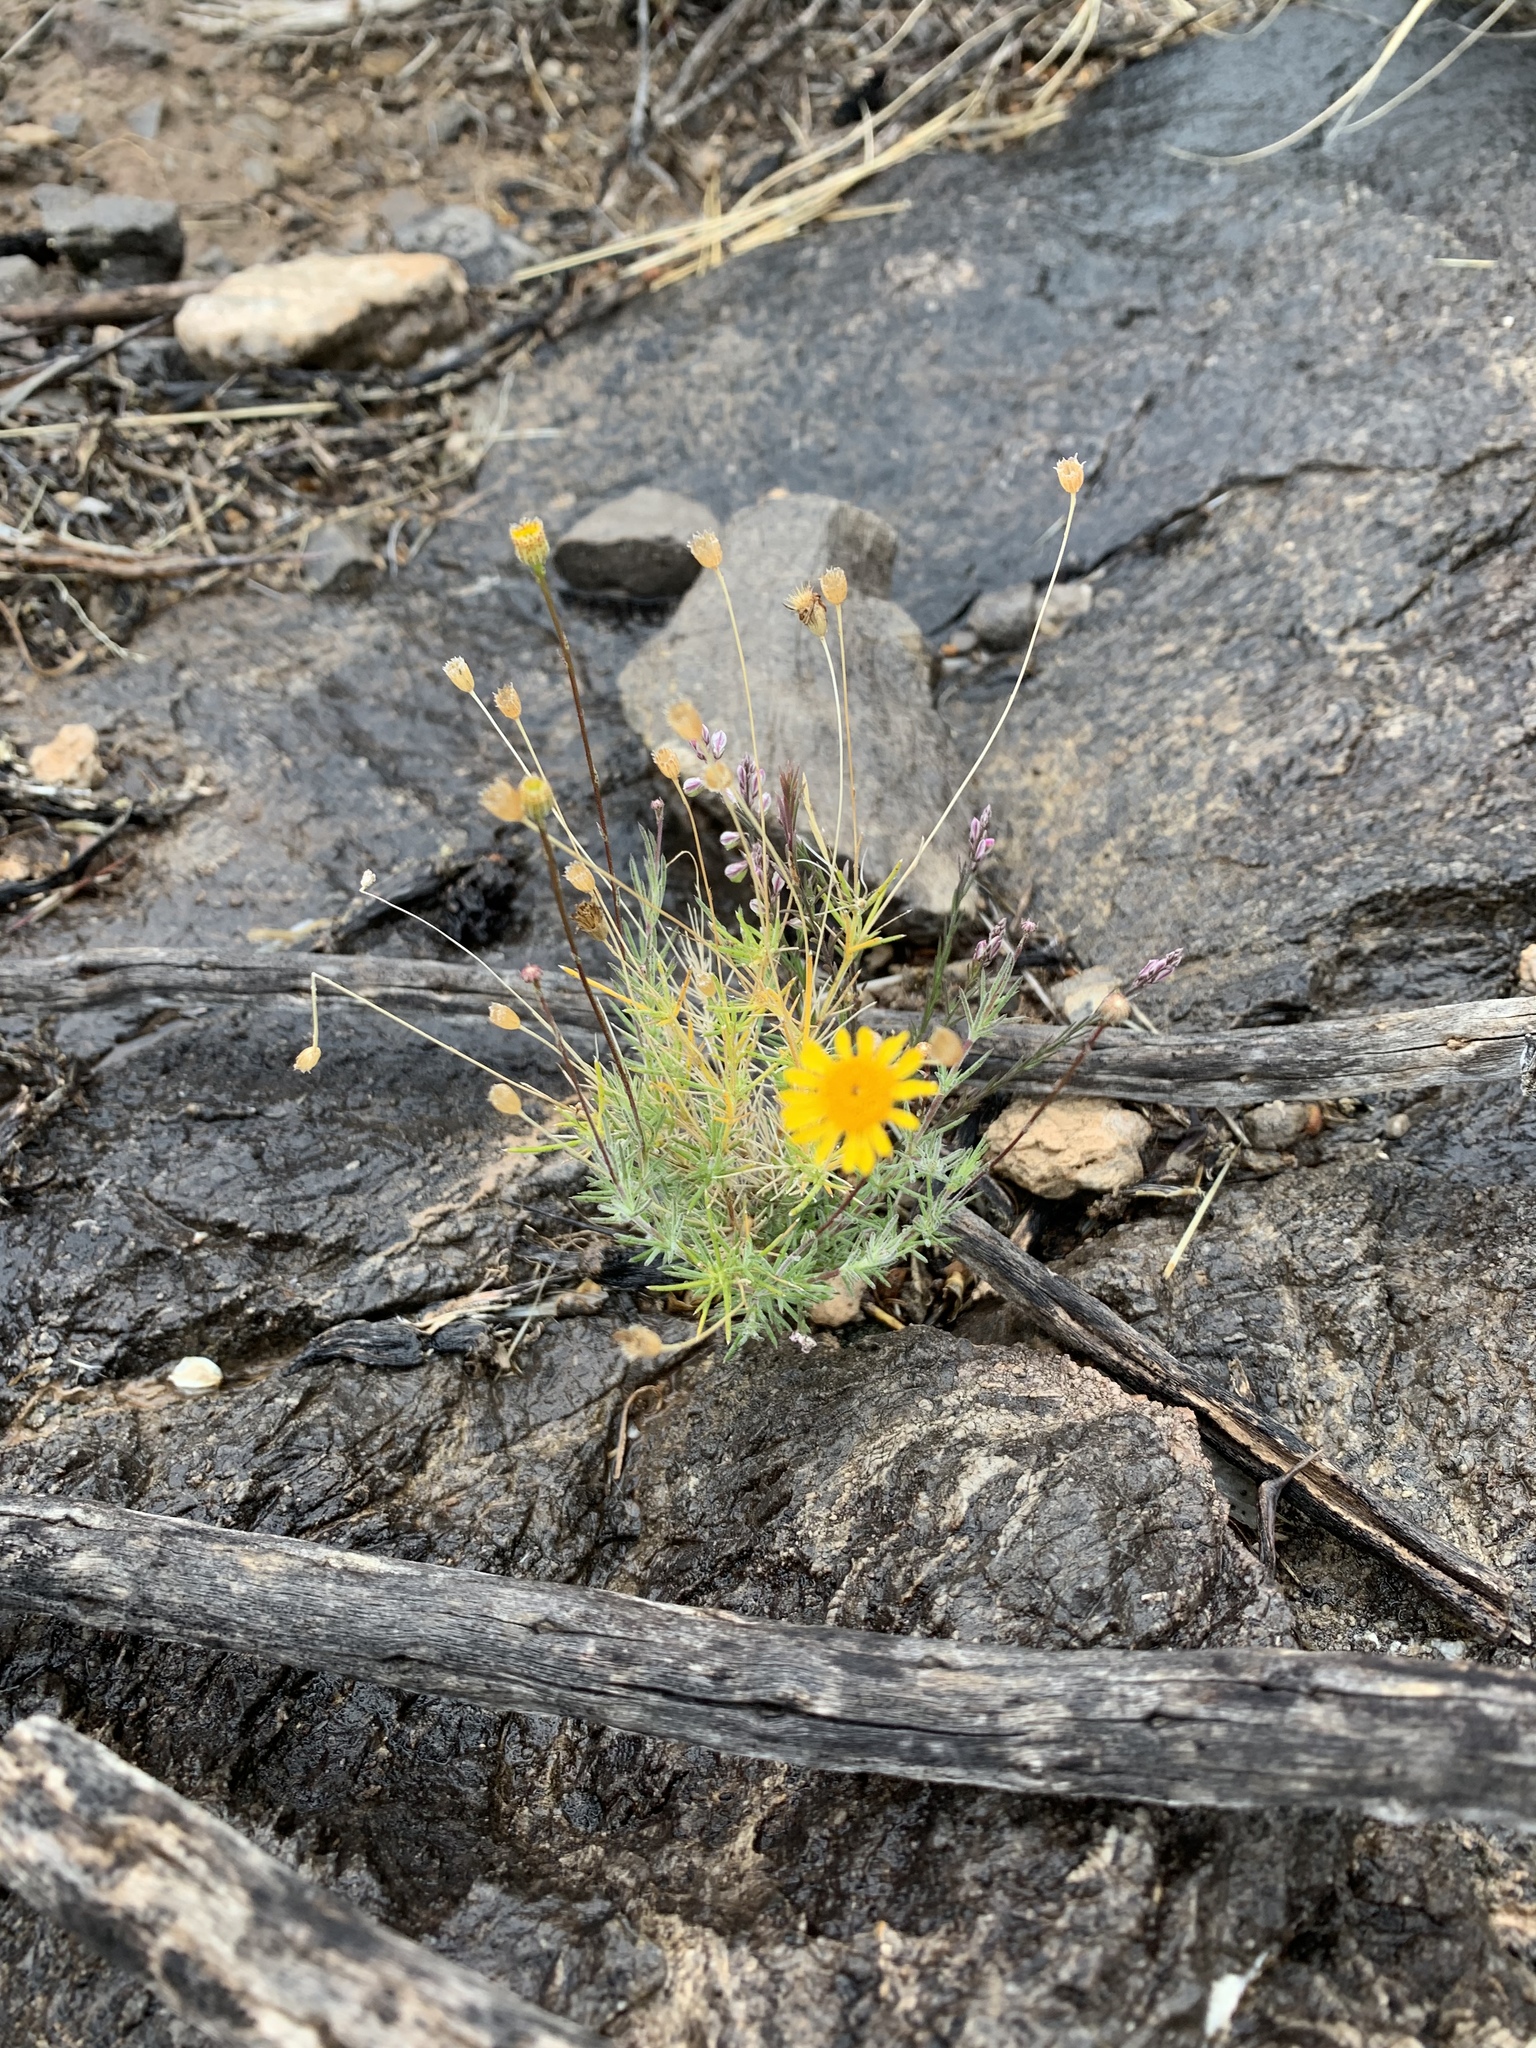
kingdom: Plantae
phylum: Tracheophyta
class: Magnoliopsida
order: Asterales
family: Asteraceae
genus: Thymophylla
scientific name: Thymophylla pentachaeta
